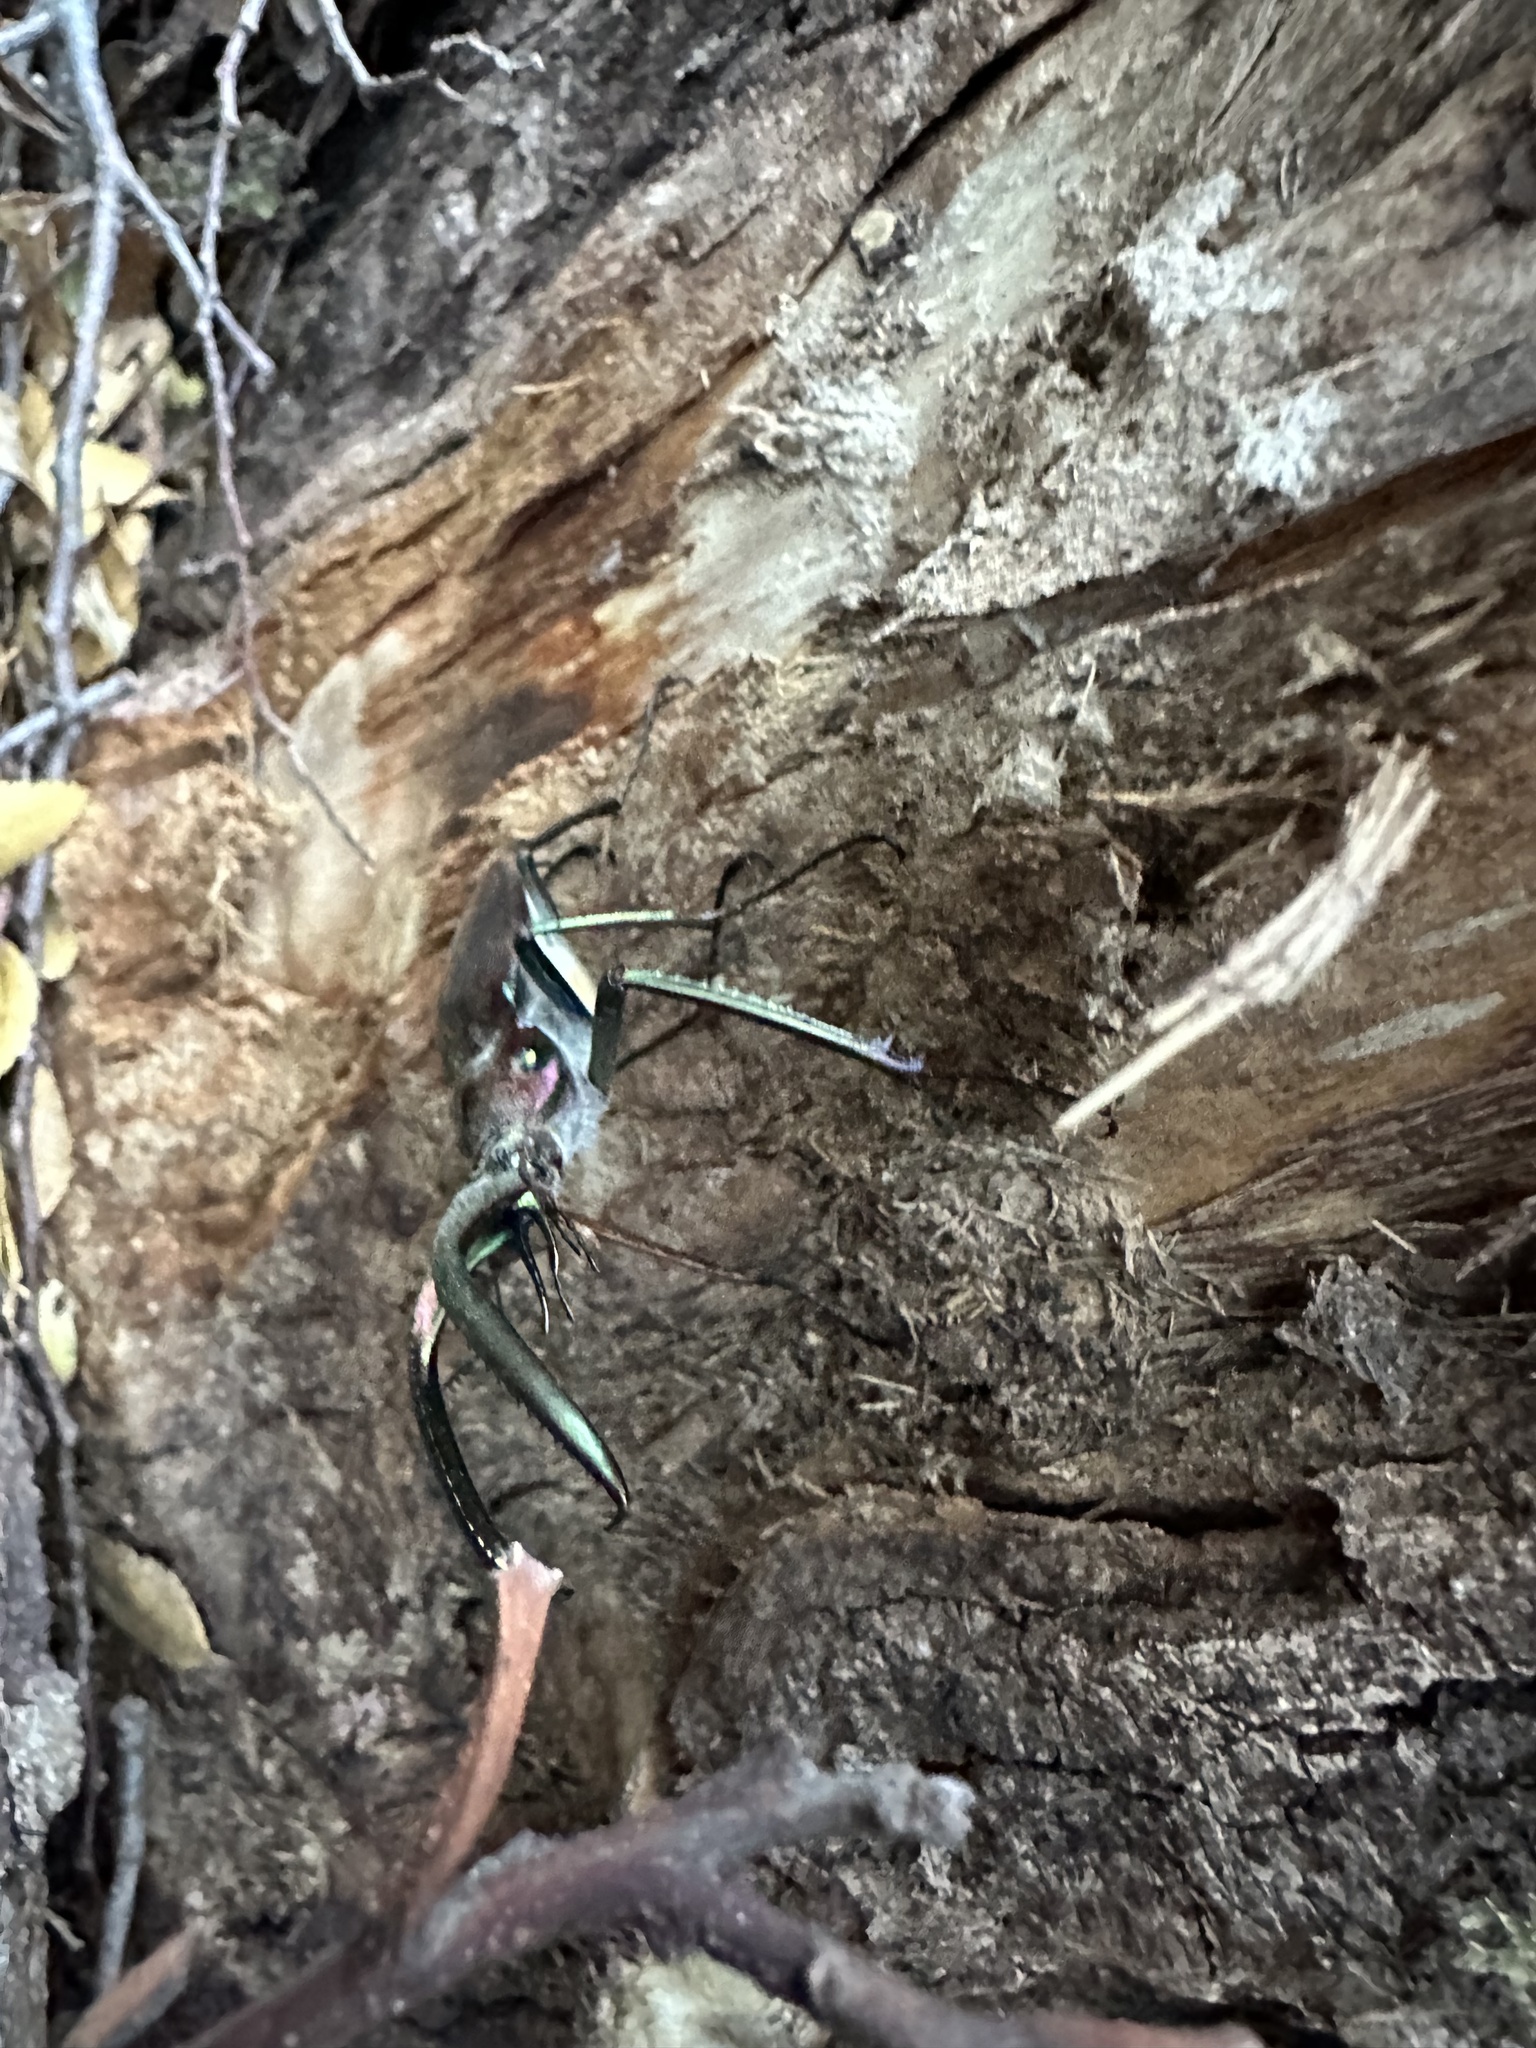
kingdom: Animalia
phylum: Arthropoda
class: Insecta
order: Coleoptera
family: Lucanidae
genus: Chiasognathus
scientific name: Chiasognathus grantii
